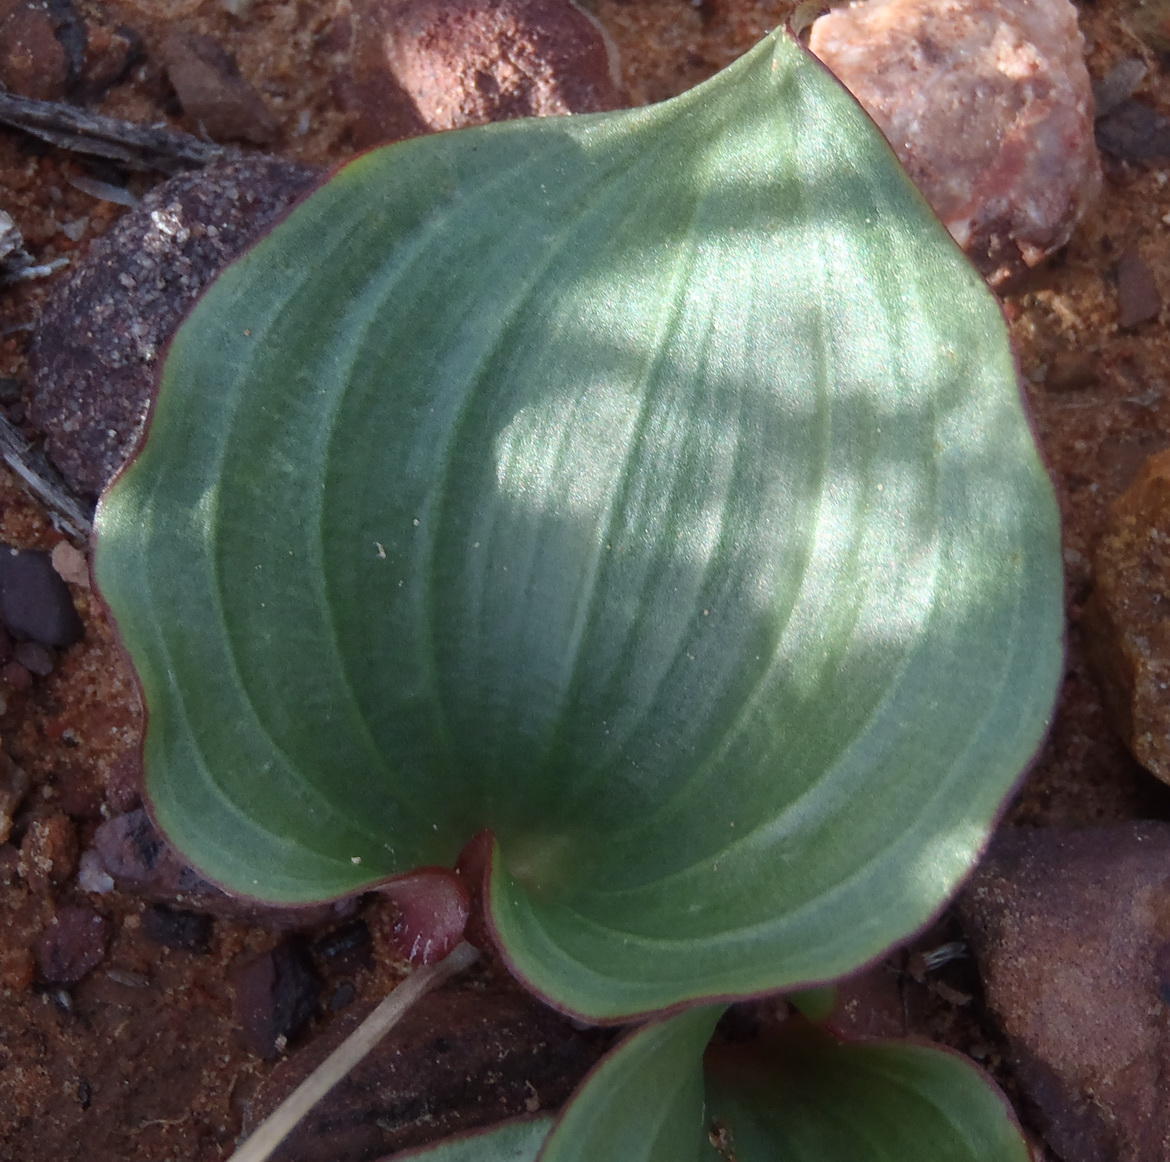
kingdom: Plantae
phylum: Tracheophyta
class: Liliopsida
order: Asparagales
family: Asparagaceae
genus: Eriospermum
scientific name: Eriospermum capense
